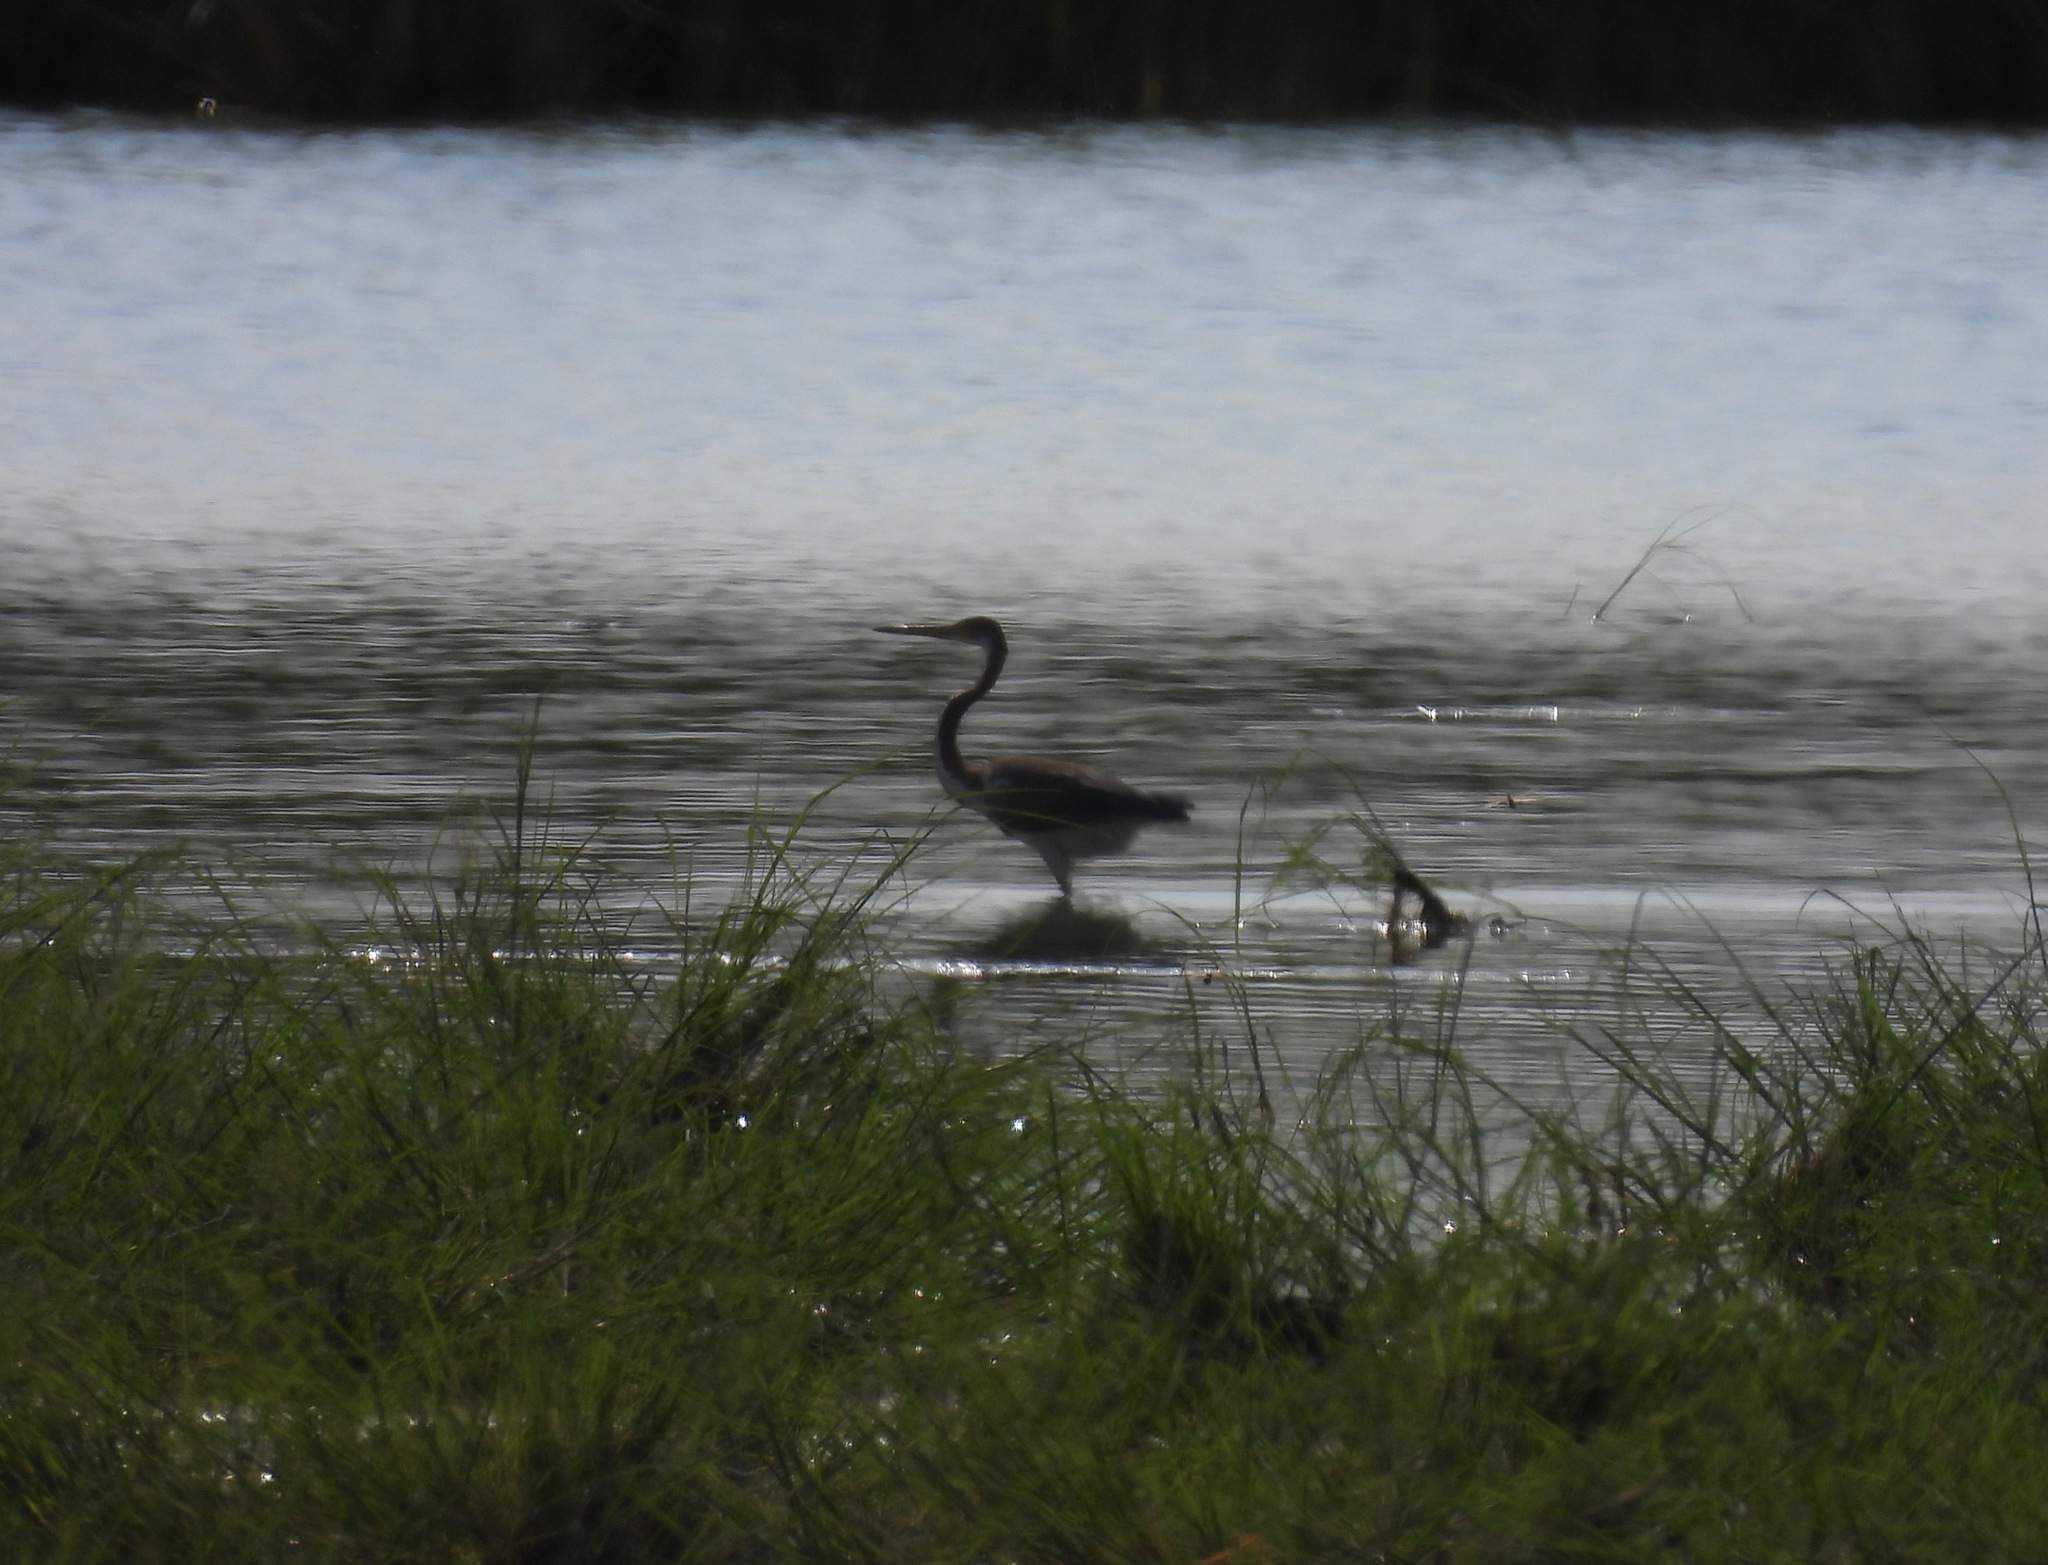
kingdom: Animalia
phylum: Chordata
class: Aves
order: Pelecaniformes
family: Ardeidae
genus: Egretta
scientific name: Egretta tricolor
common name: Tricolored heron
